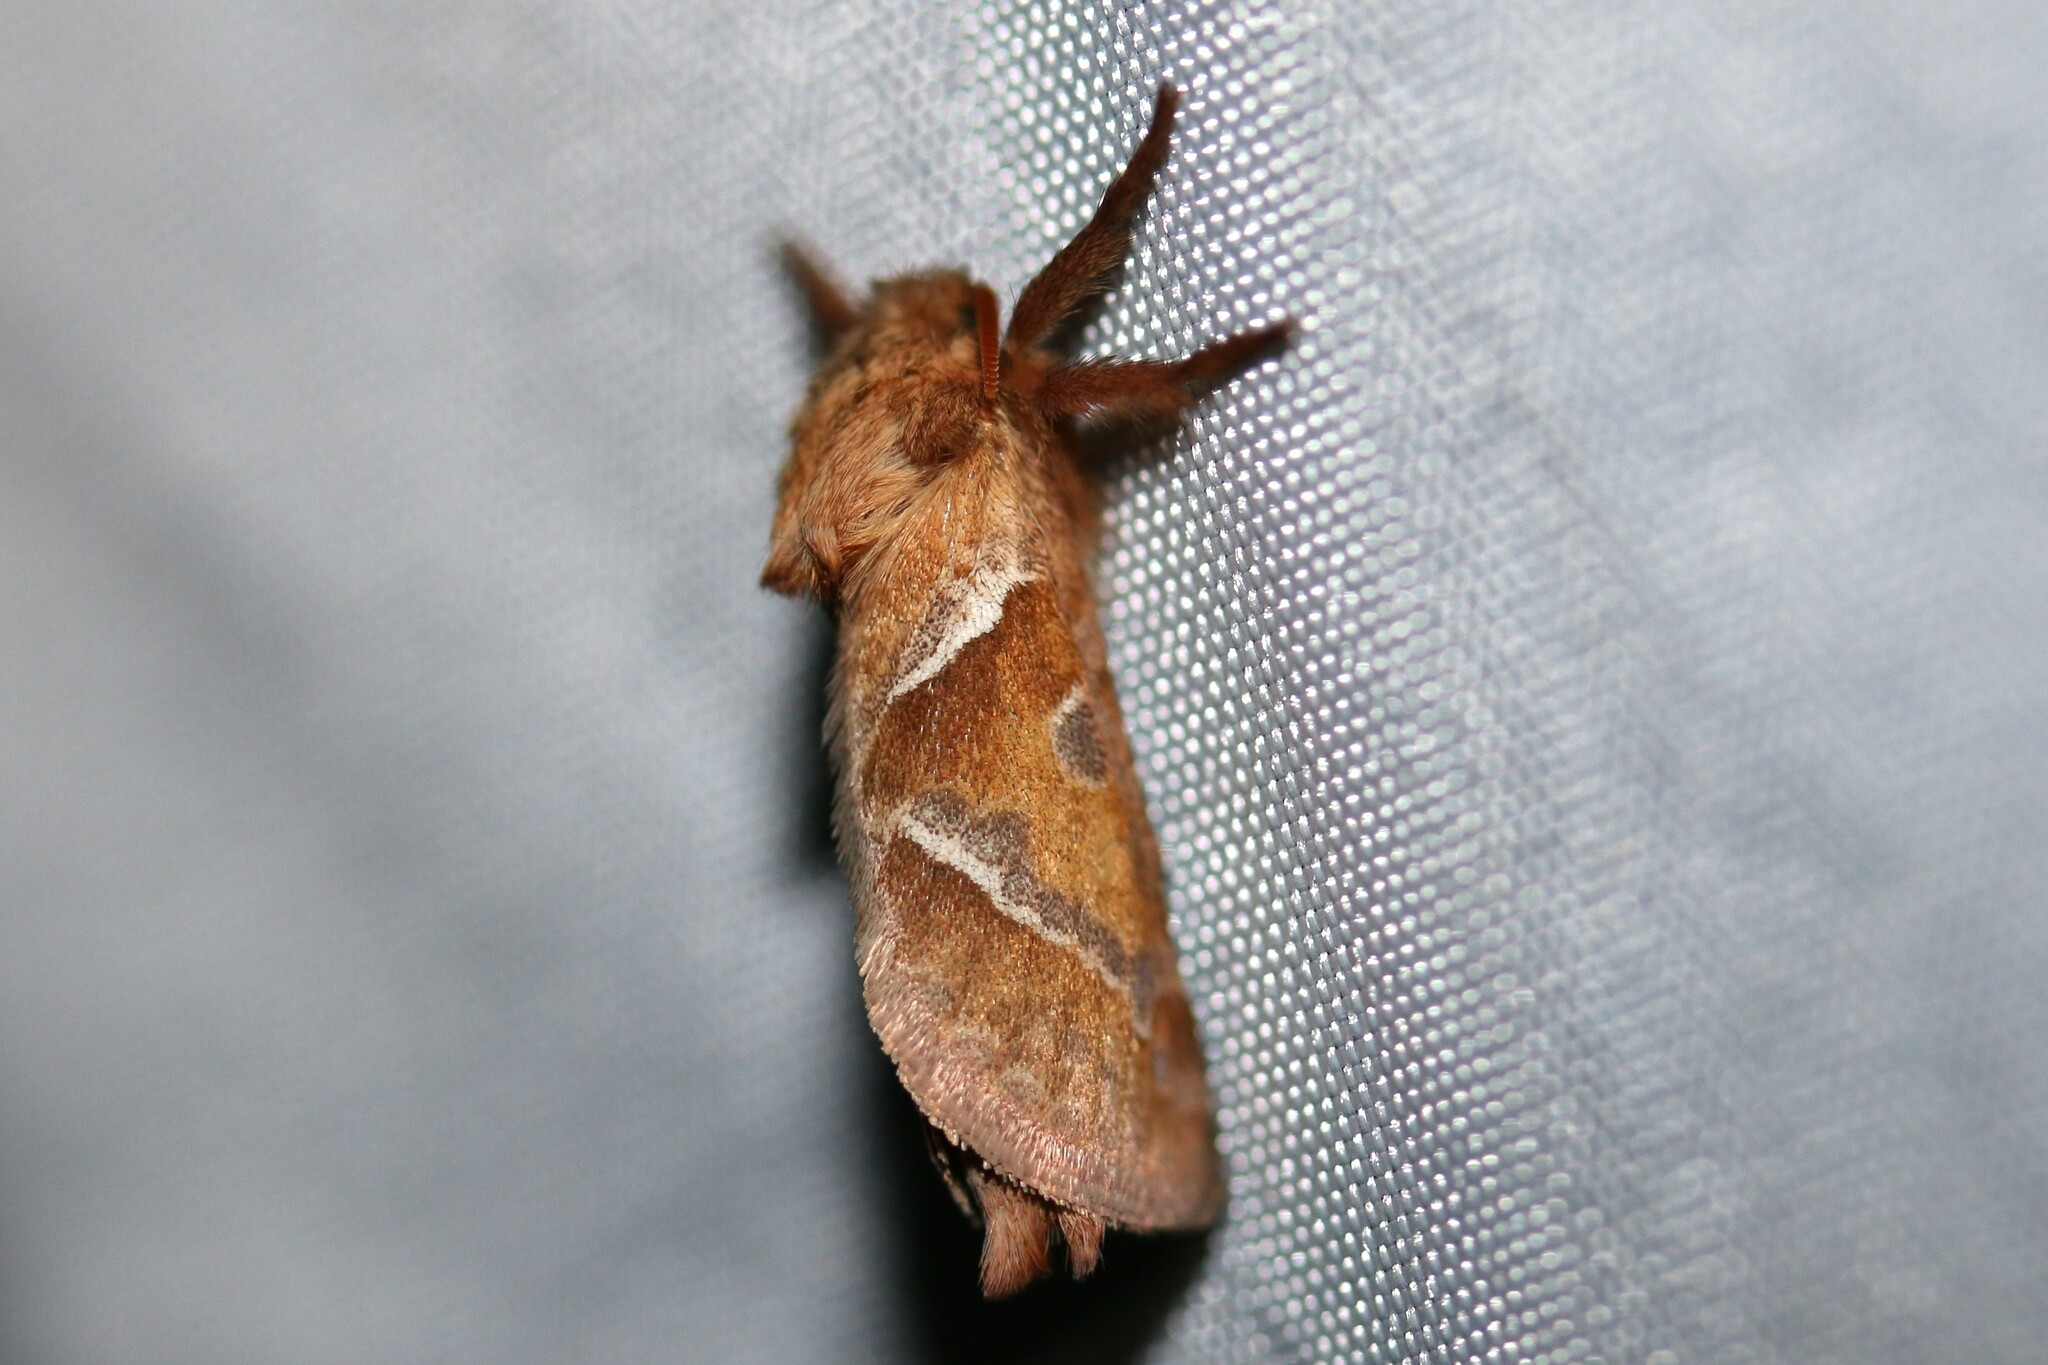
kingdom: Animalia
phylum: Arthropoda
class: Insecta
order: Lepidoptera
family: Hepialidae
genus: Triodia
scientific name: Triodia sylvina
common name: Orange swift
